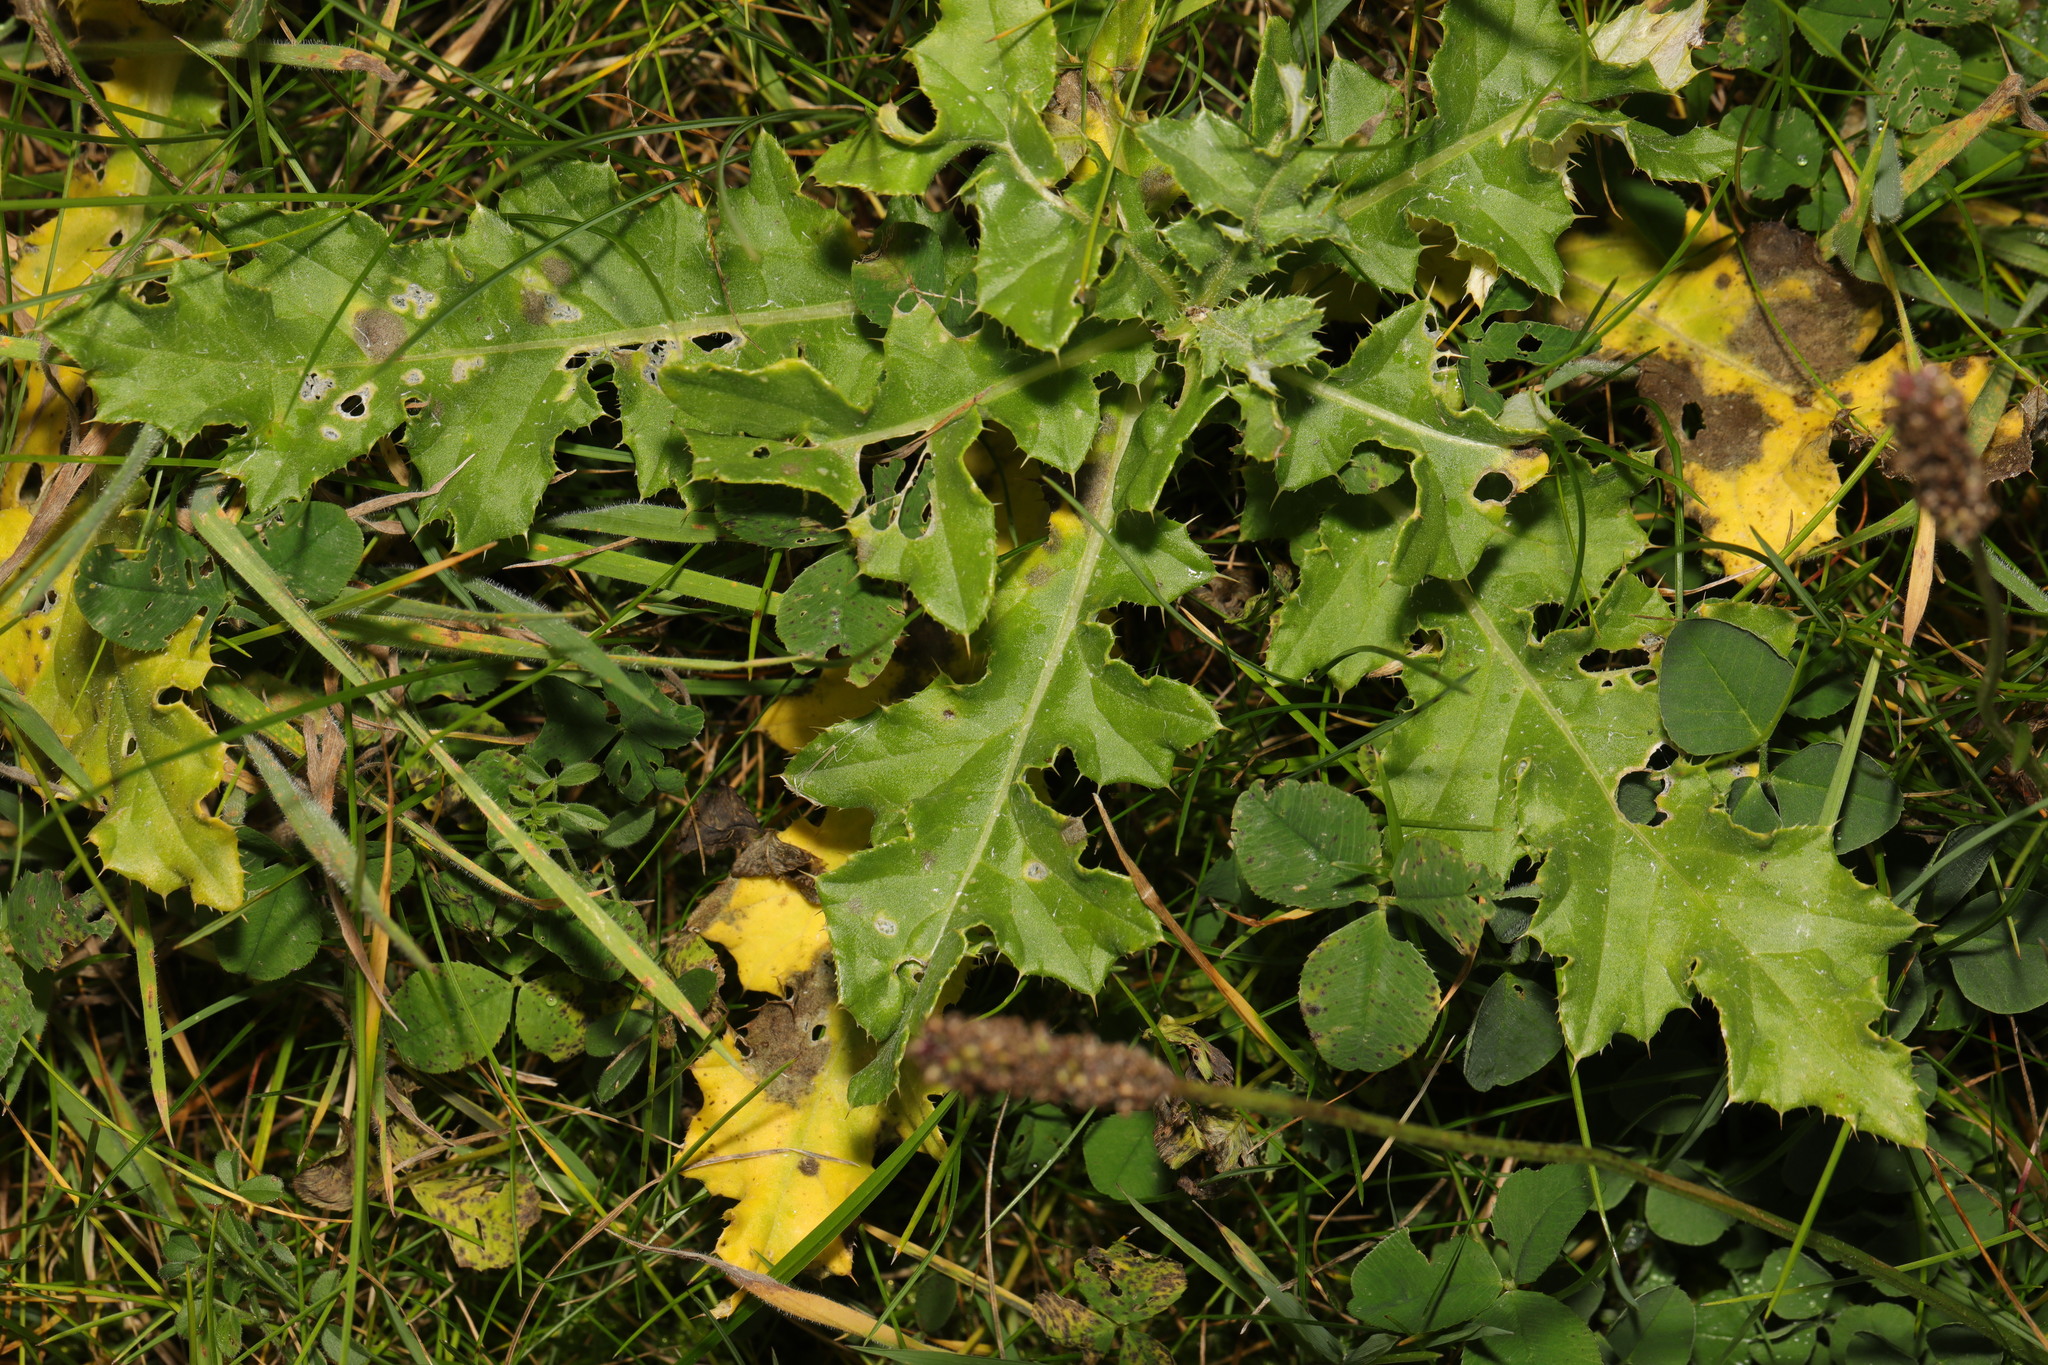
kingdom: Plantae
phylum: Tracheophyta
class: Magnoliopsida
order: Asterales
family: Asteraceae
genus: Cirsium
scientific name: Cirsium arvense
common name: Creeping thistle
